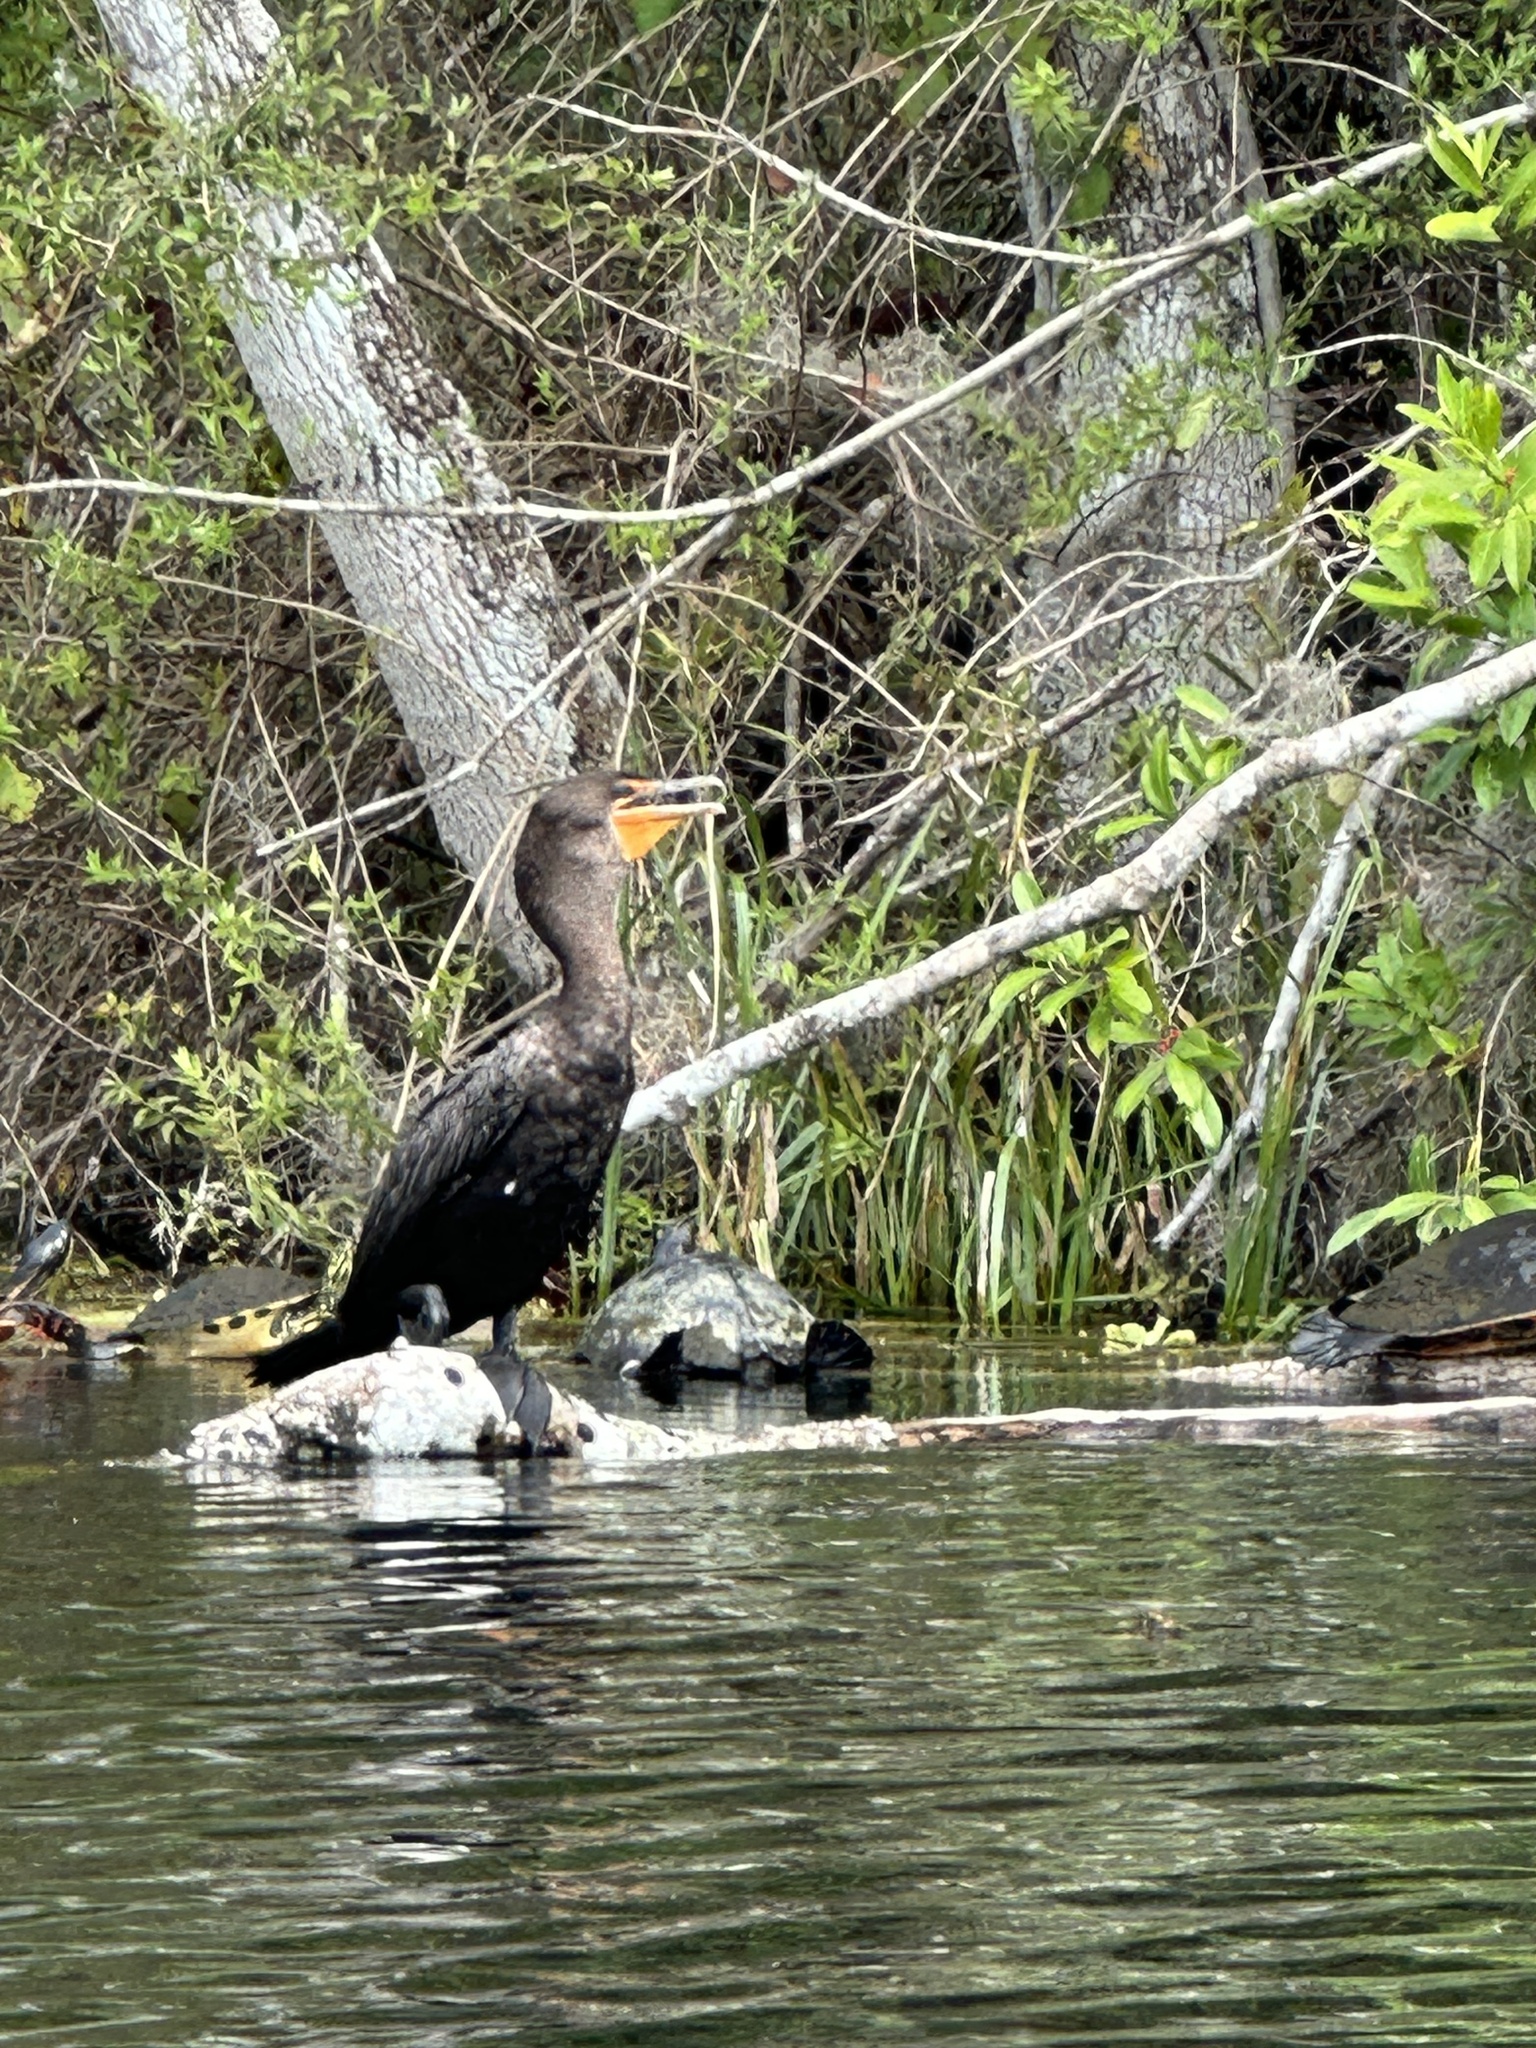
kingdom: Animalia
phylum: Chordata
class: Aves
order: Suliformes
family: Phalacrocoracidae
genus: Phalacrocorax
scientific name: Phalacrocorax auritus
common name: Double-crested cormorant
